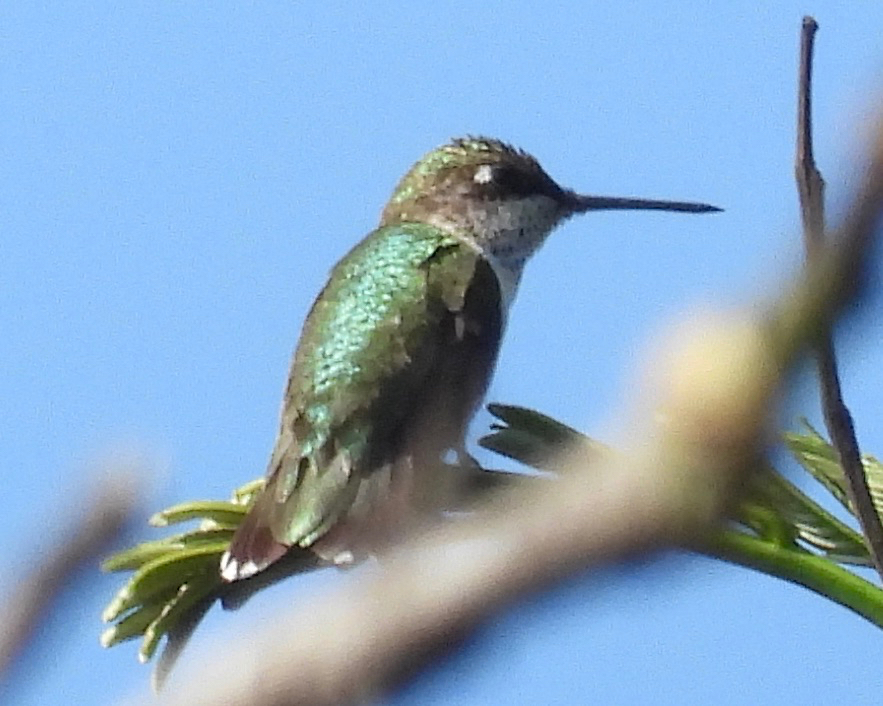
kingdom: Animalia
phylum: Chordata
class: Aves
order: Apodiformes
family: Trochilidae
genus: Archilochus
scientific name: Archilochus colubris
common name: Ruby-throated hummingbird
